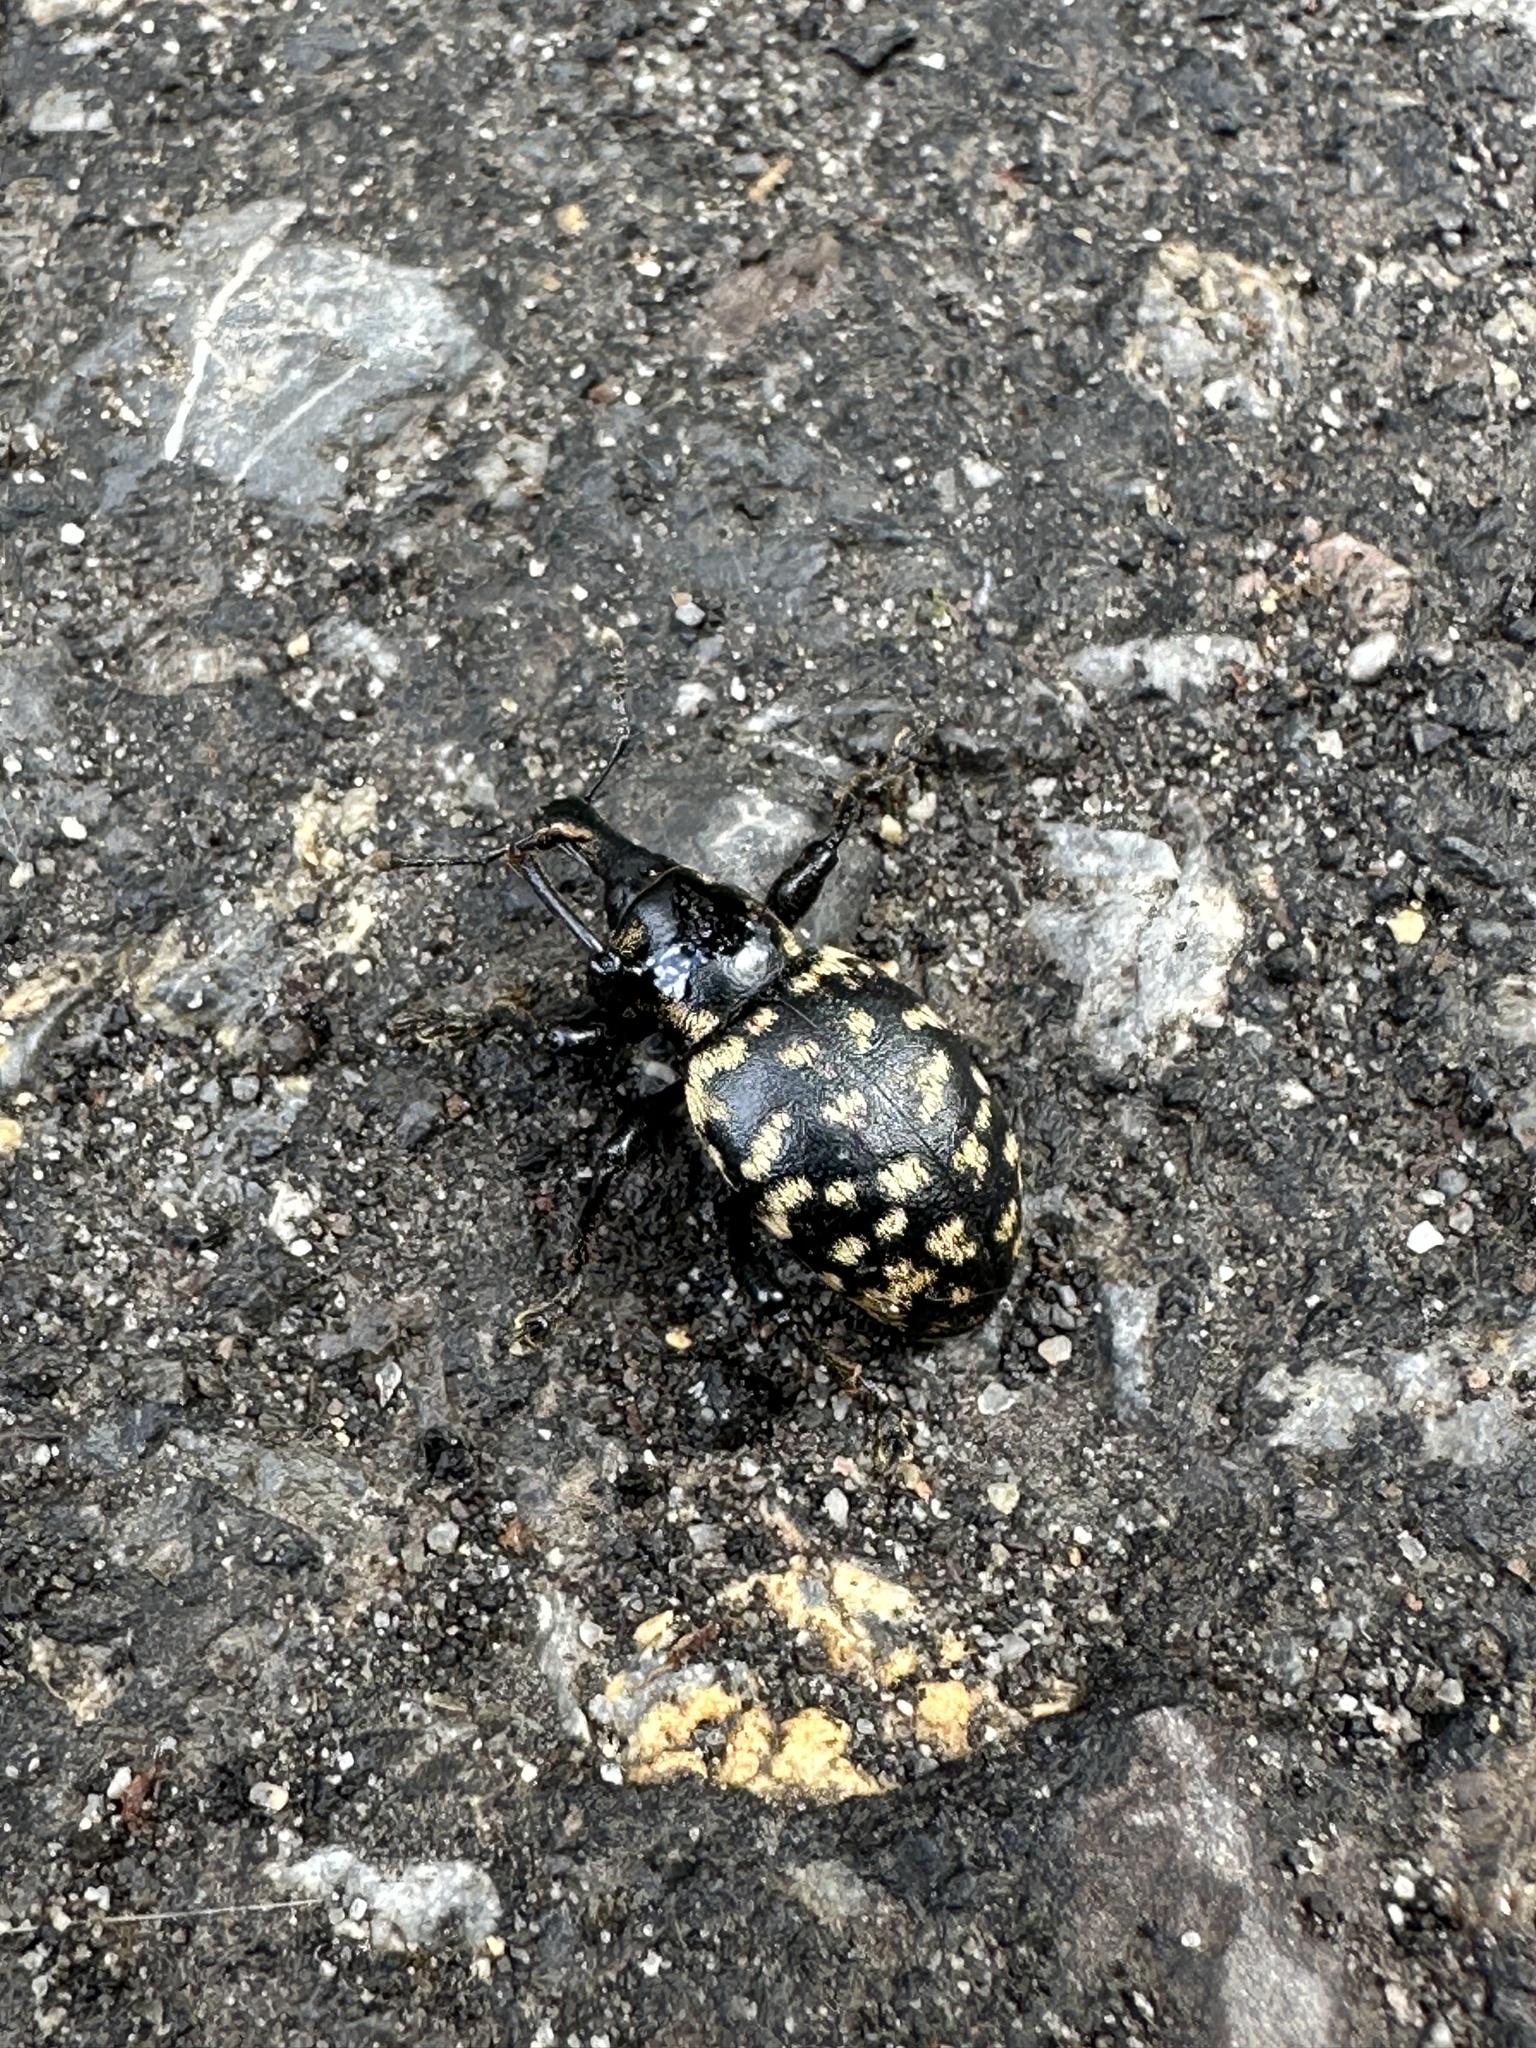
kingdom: Animalia
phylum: Arthropoda
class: Insecta
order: Coleoptera
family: Curculionidae
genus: Liparus
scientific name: Liparus glabrirostris
